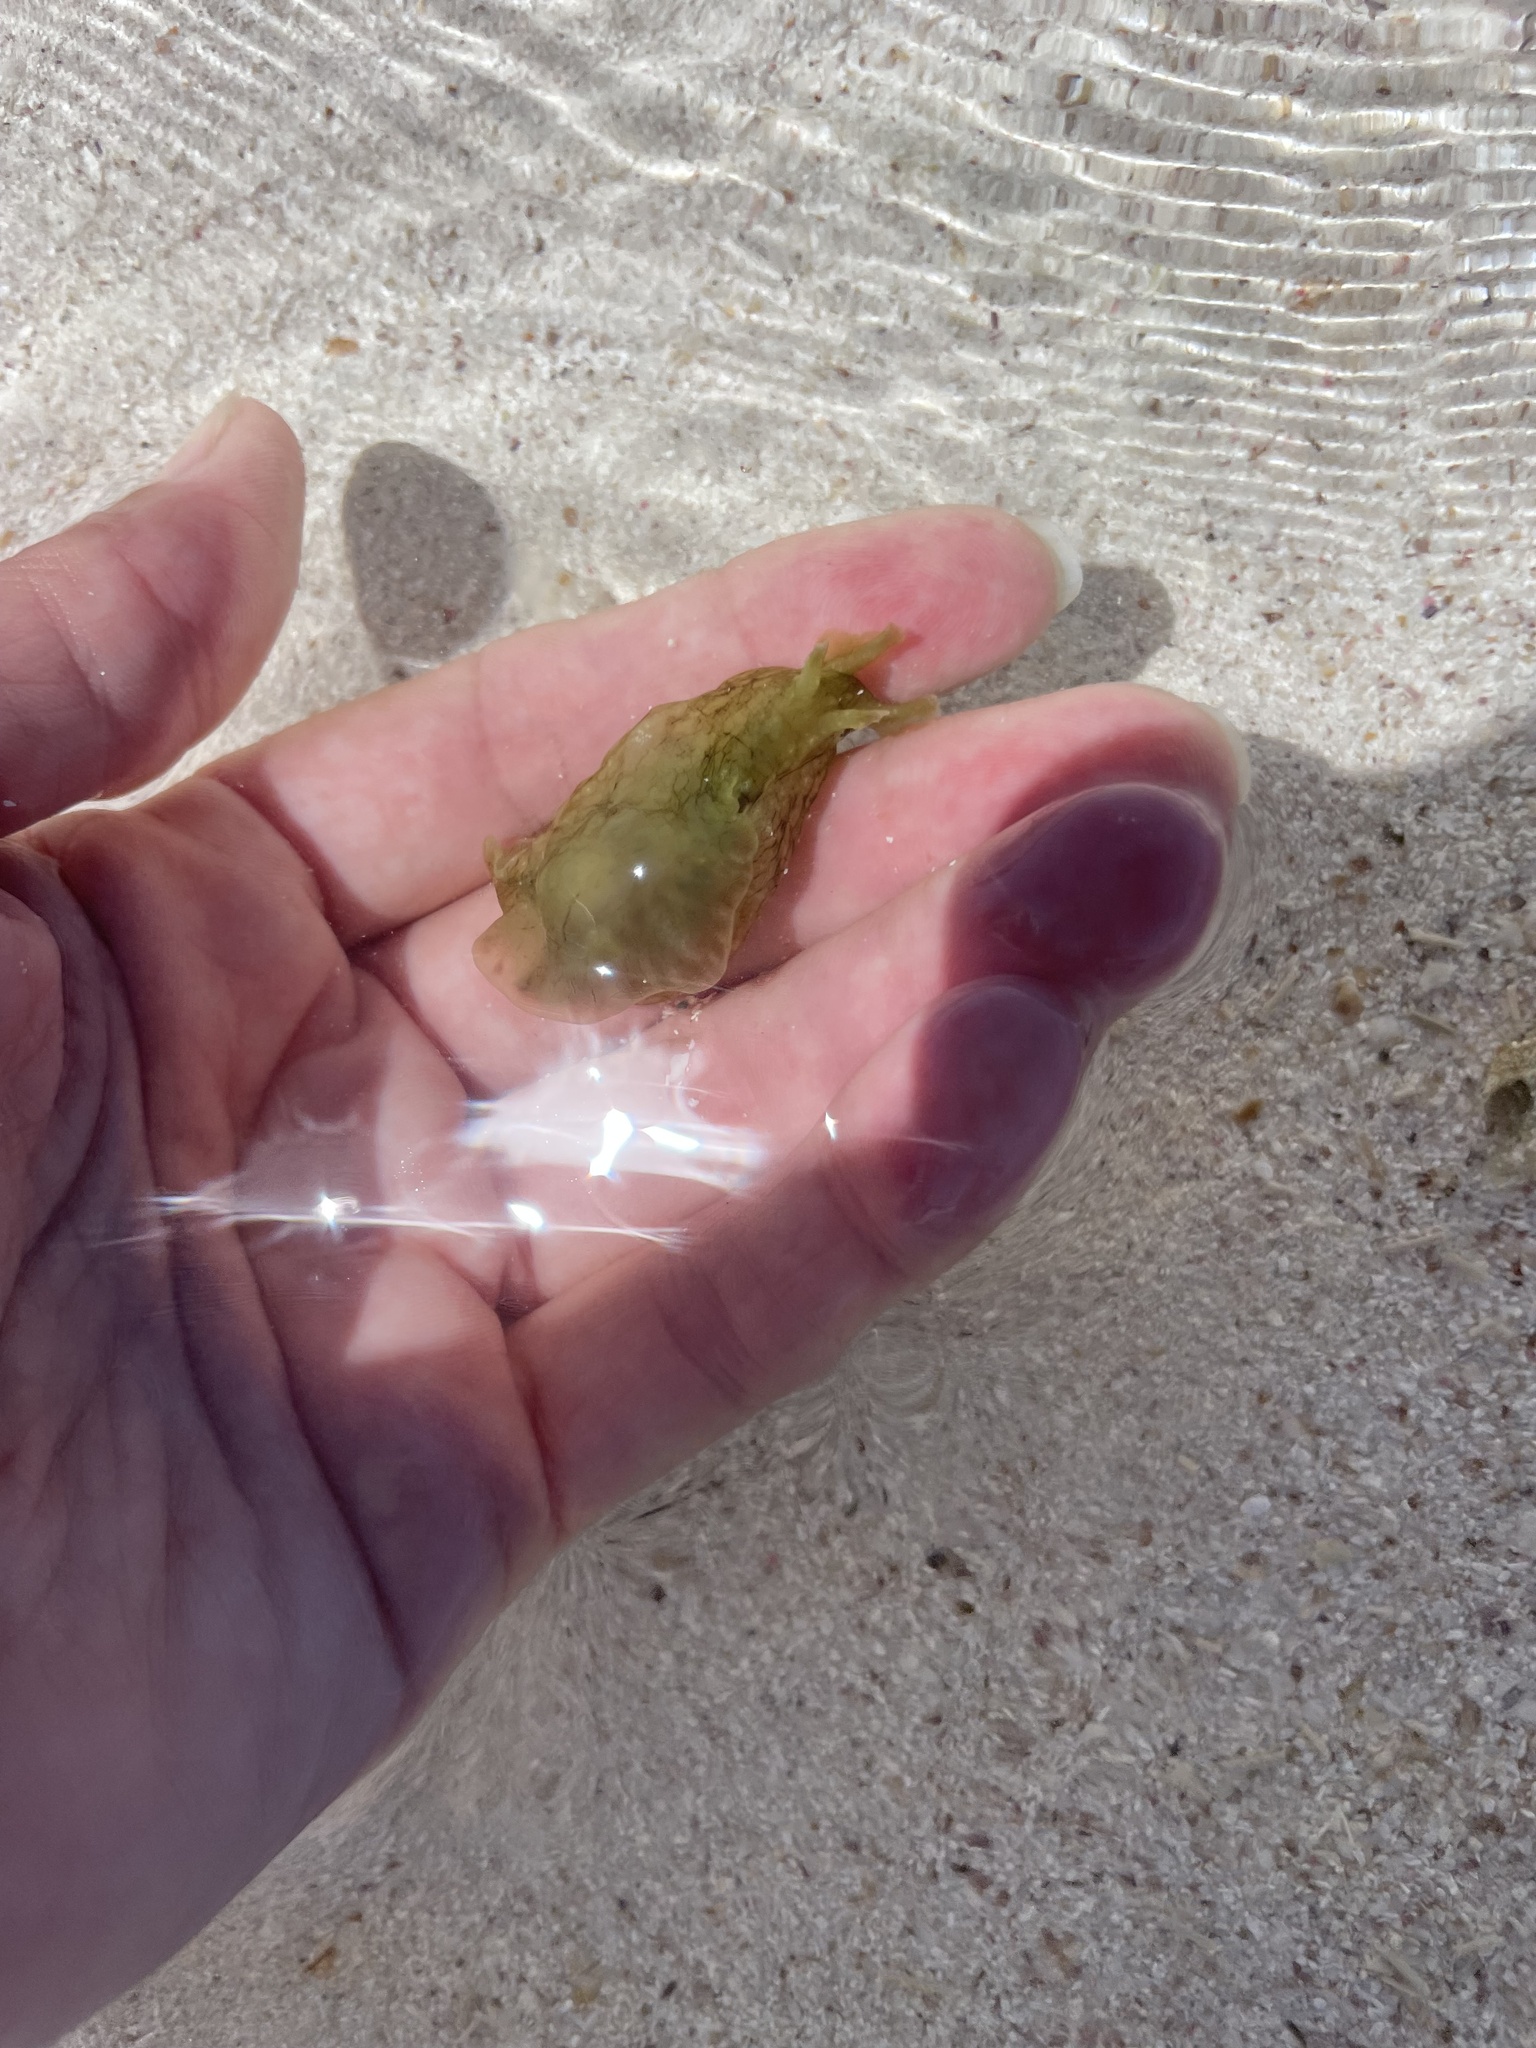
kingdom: Animalia
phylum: Mollusca
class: Gastropoda
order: Aplysiida
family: Aplysiidae
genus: Aplysia
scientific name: Aplysia californica
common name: California seahare
